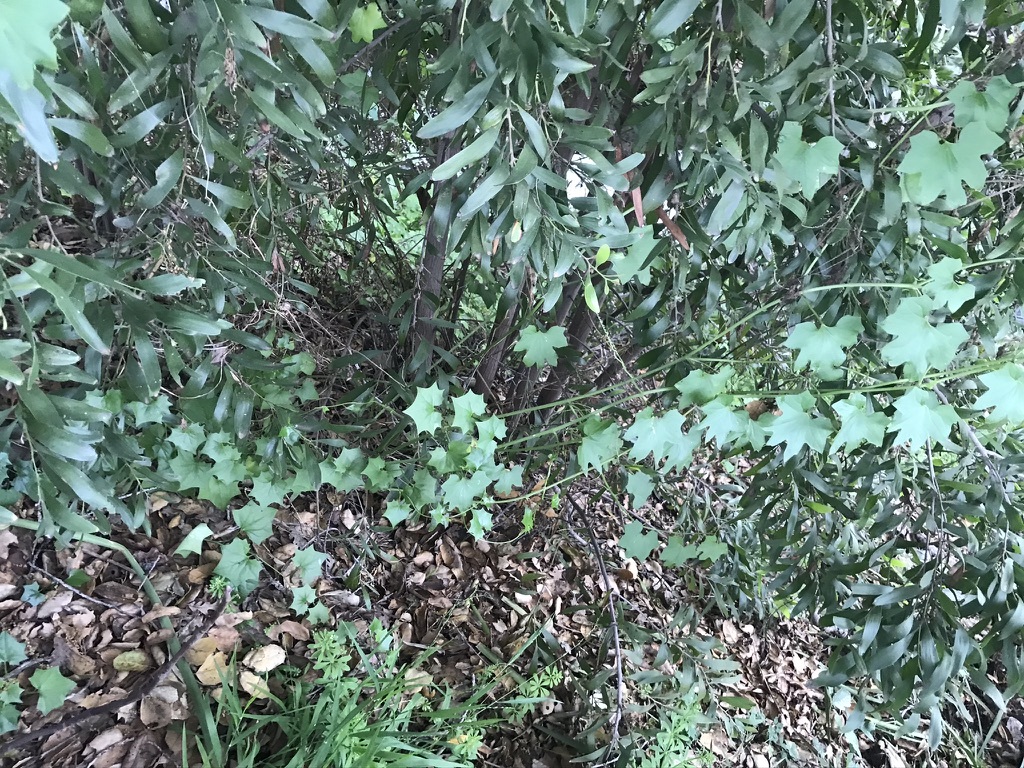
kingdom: Plantae
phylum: Tracheophyta
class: Magnoliopsida
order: Asterales
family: Asteraceae
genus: Delairea
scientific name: Delairea odorata
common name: Cape-ivy
